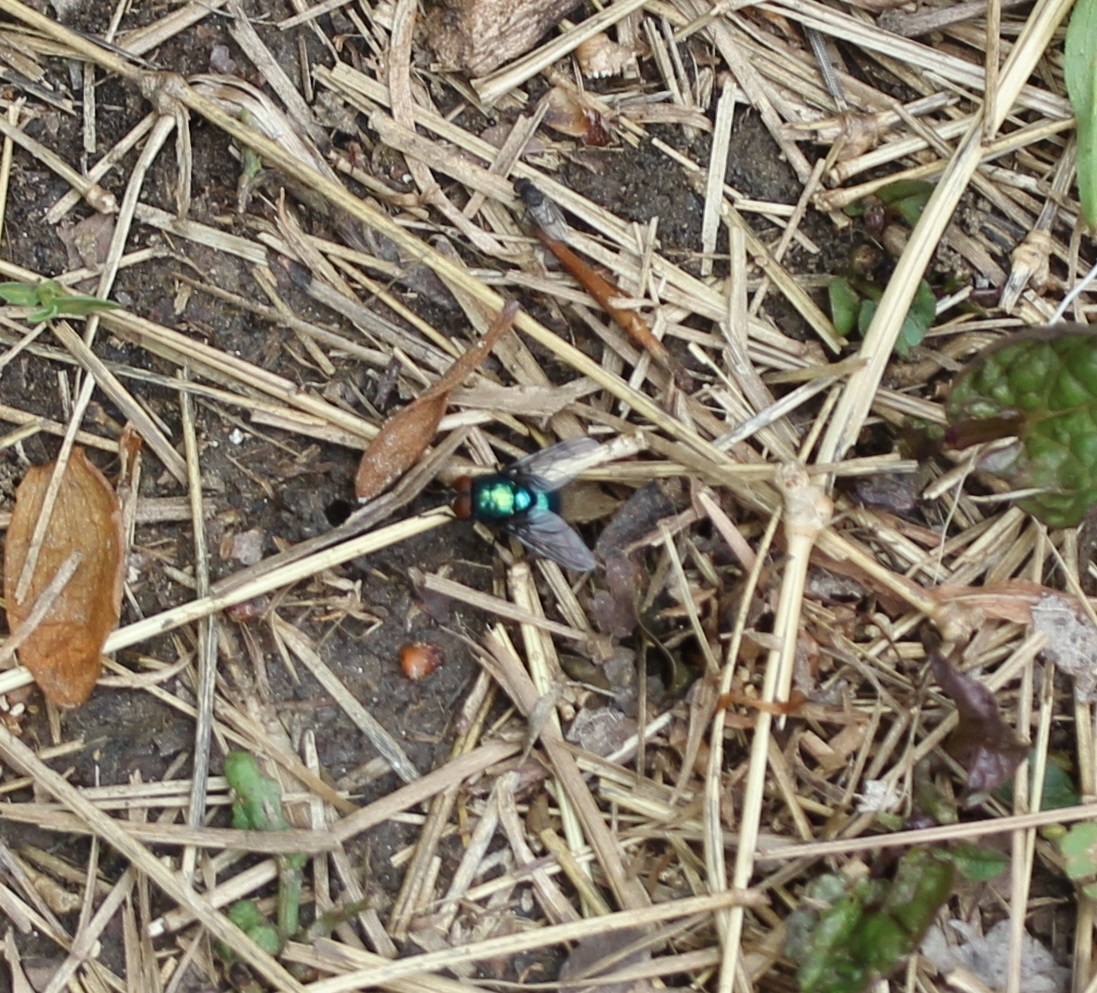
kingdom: Animalia
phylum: Arthropoda
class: Insecta
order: Diptera
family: Calliphoridae
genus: Lucilia
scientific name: Lucilia illustris
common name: Illustrious greenbottle
